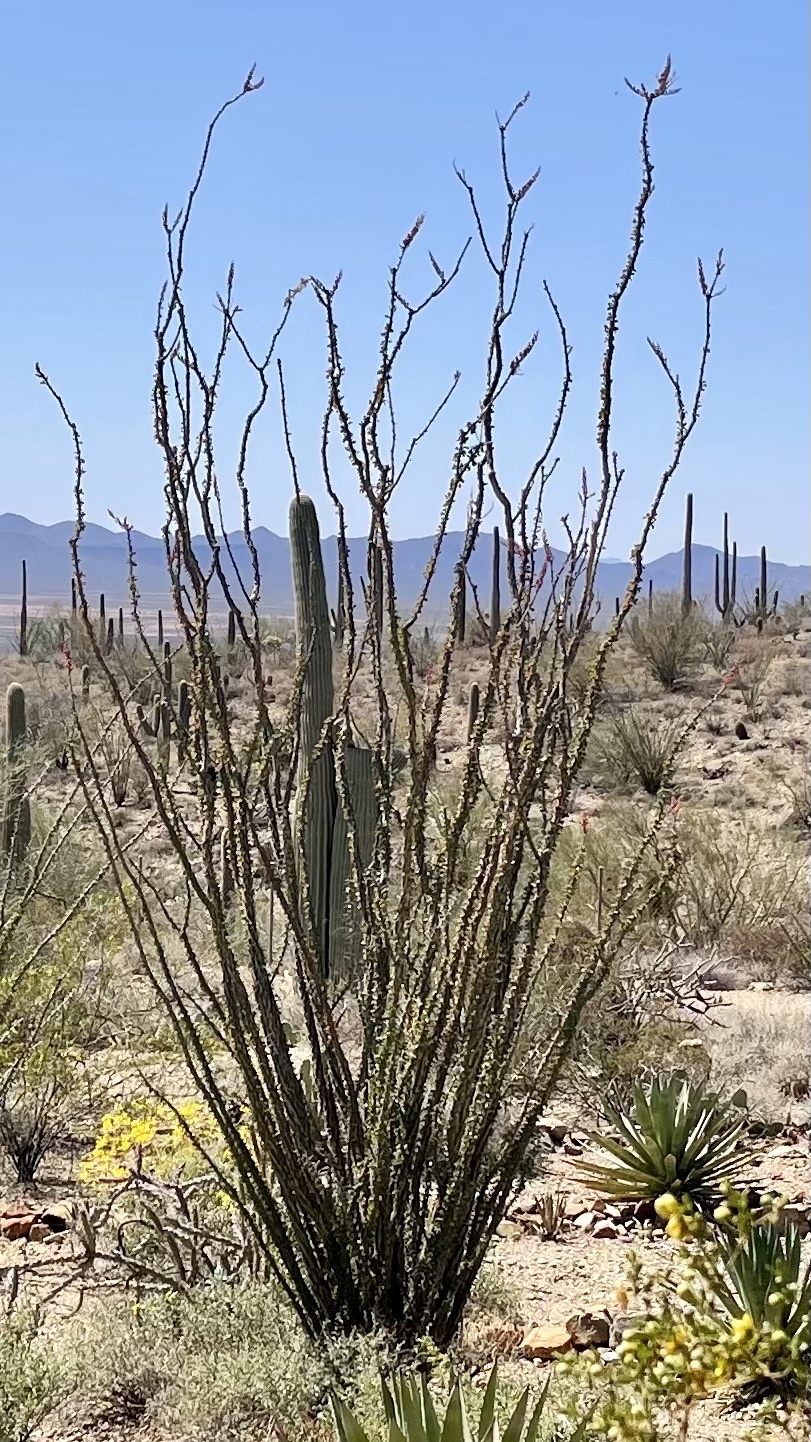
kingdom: Plantae
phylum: Tracheophyta
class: Magnoliopsida
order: Ericales
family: Fouquieriaceae
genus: Fouquieria
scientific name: Fouquieria splendens
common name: Vine-cactus
